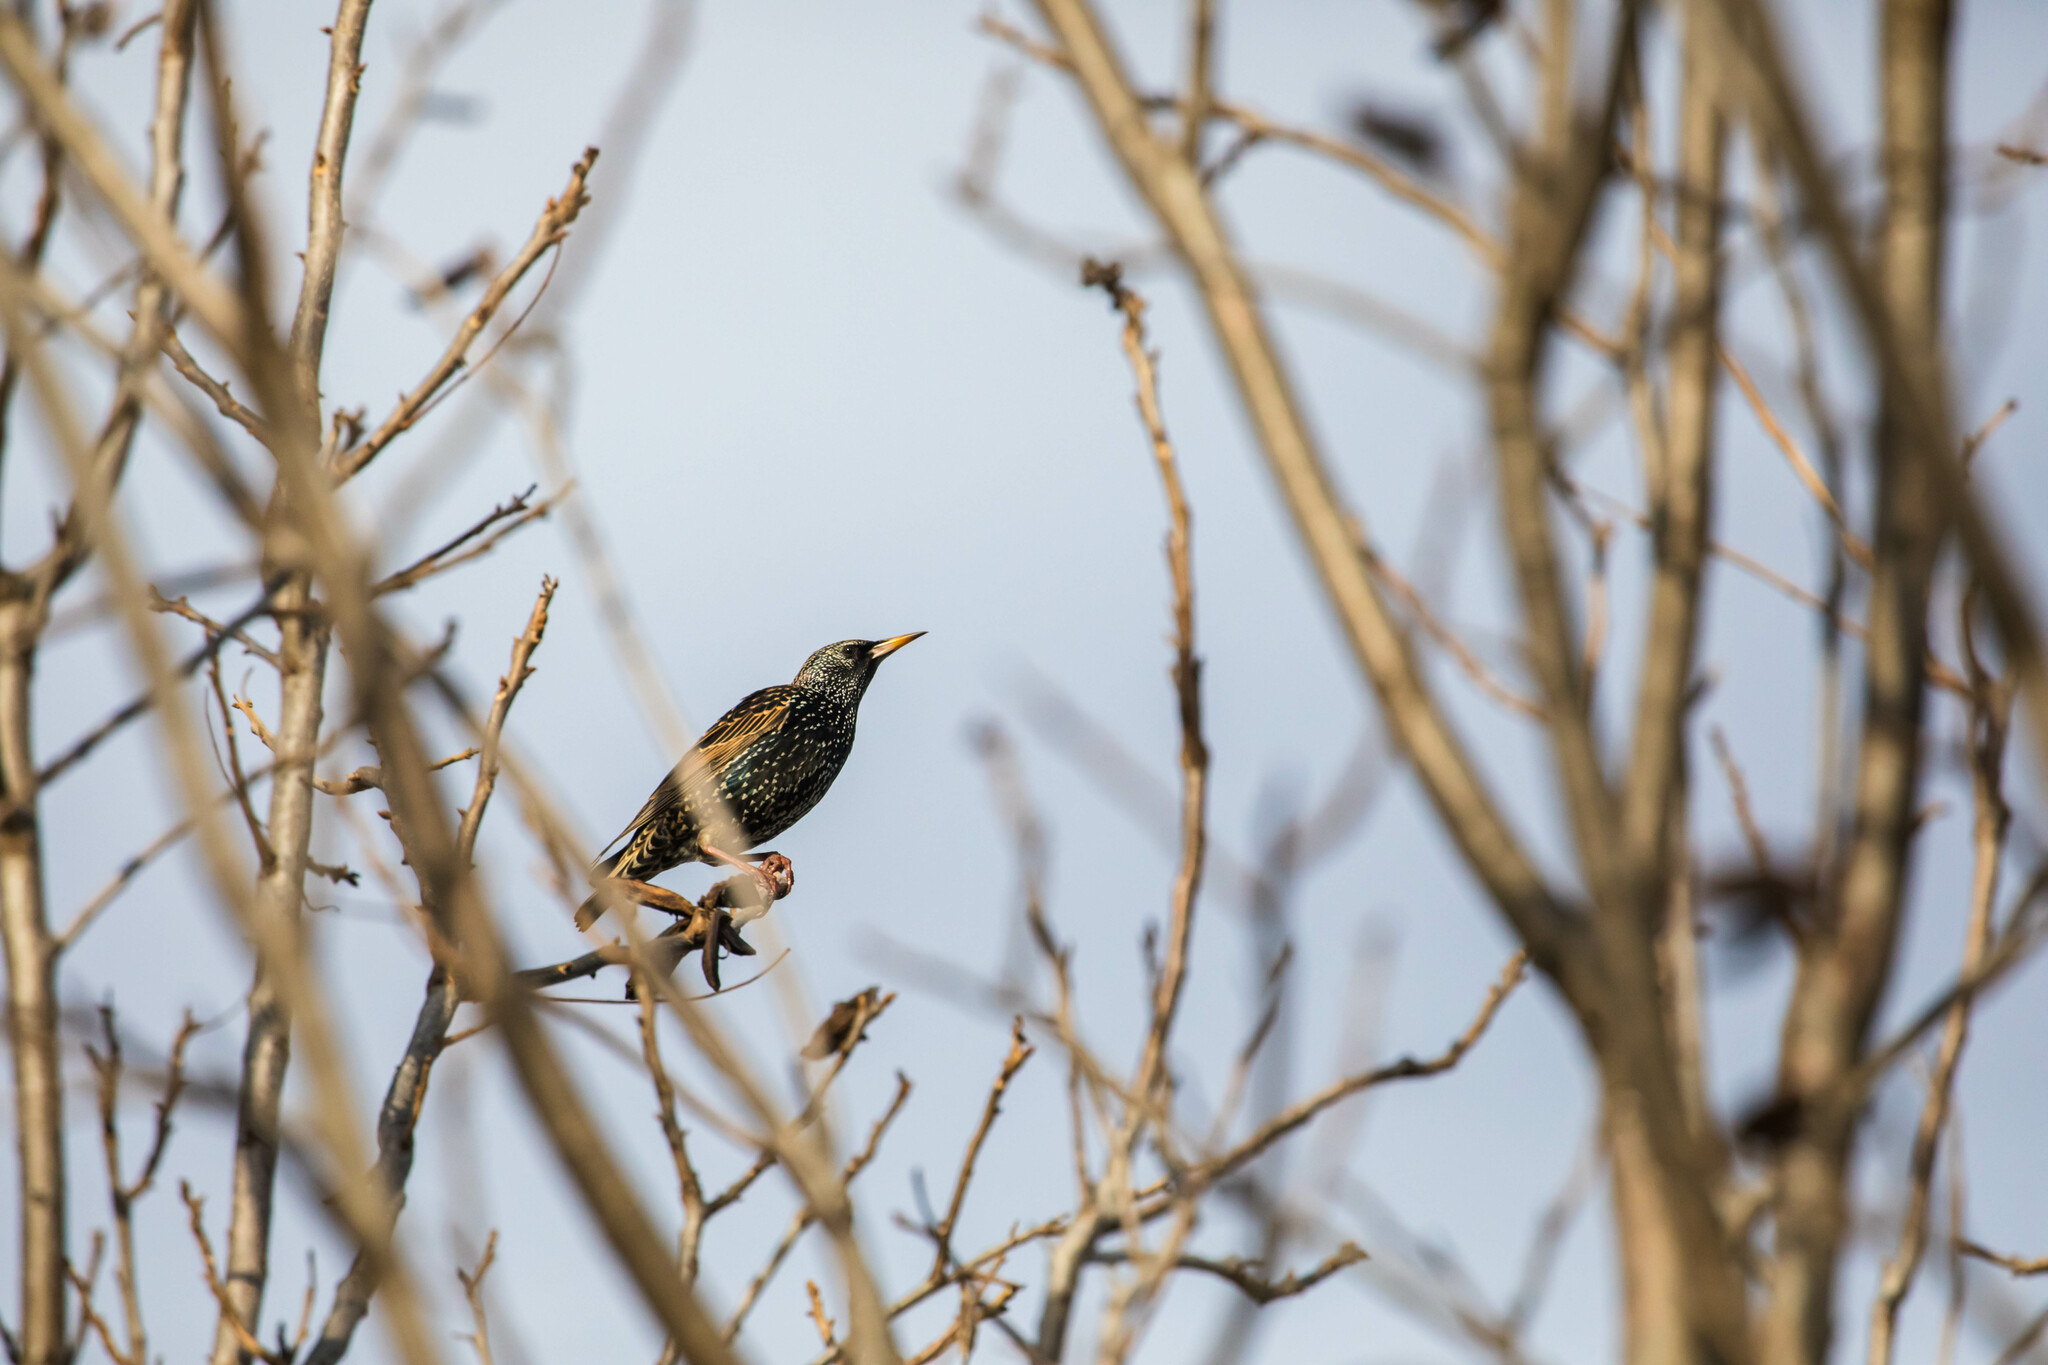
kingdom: Animalia
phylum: Chordata
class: Aves
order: Passeriformes
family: Sturnidae
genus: Sturnus
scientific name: Sturnus vulgaris
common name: Common starling
